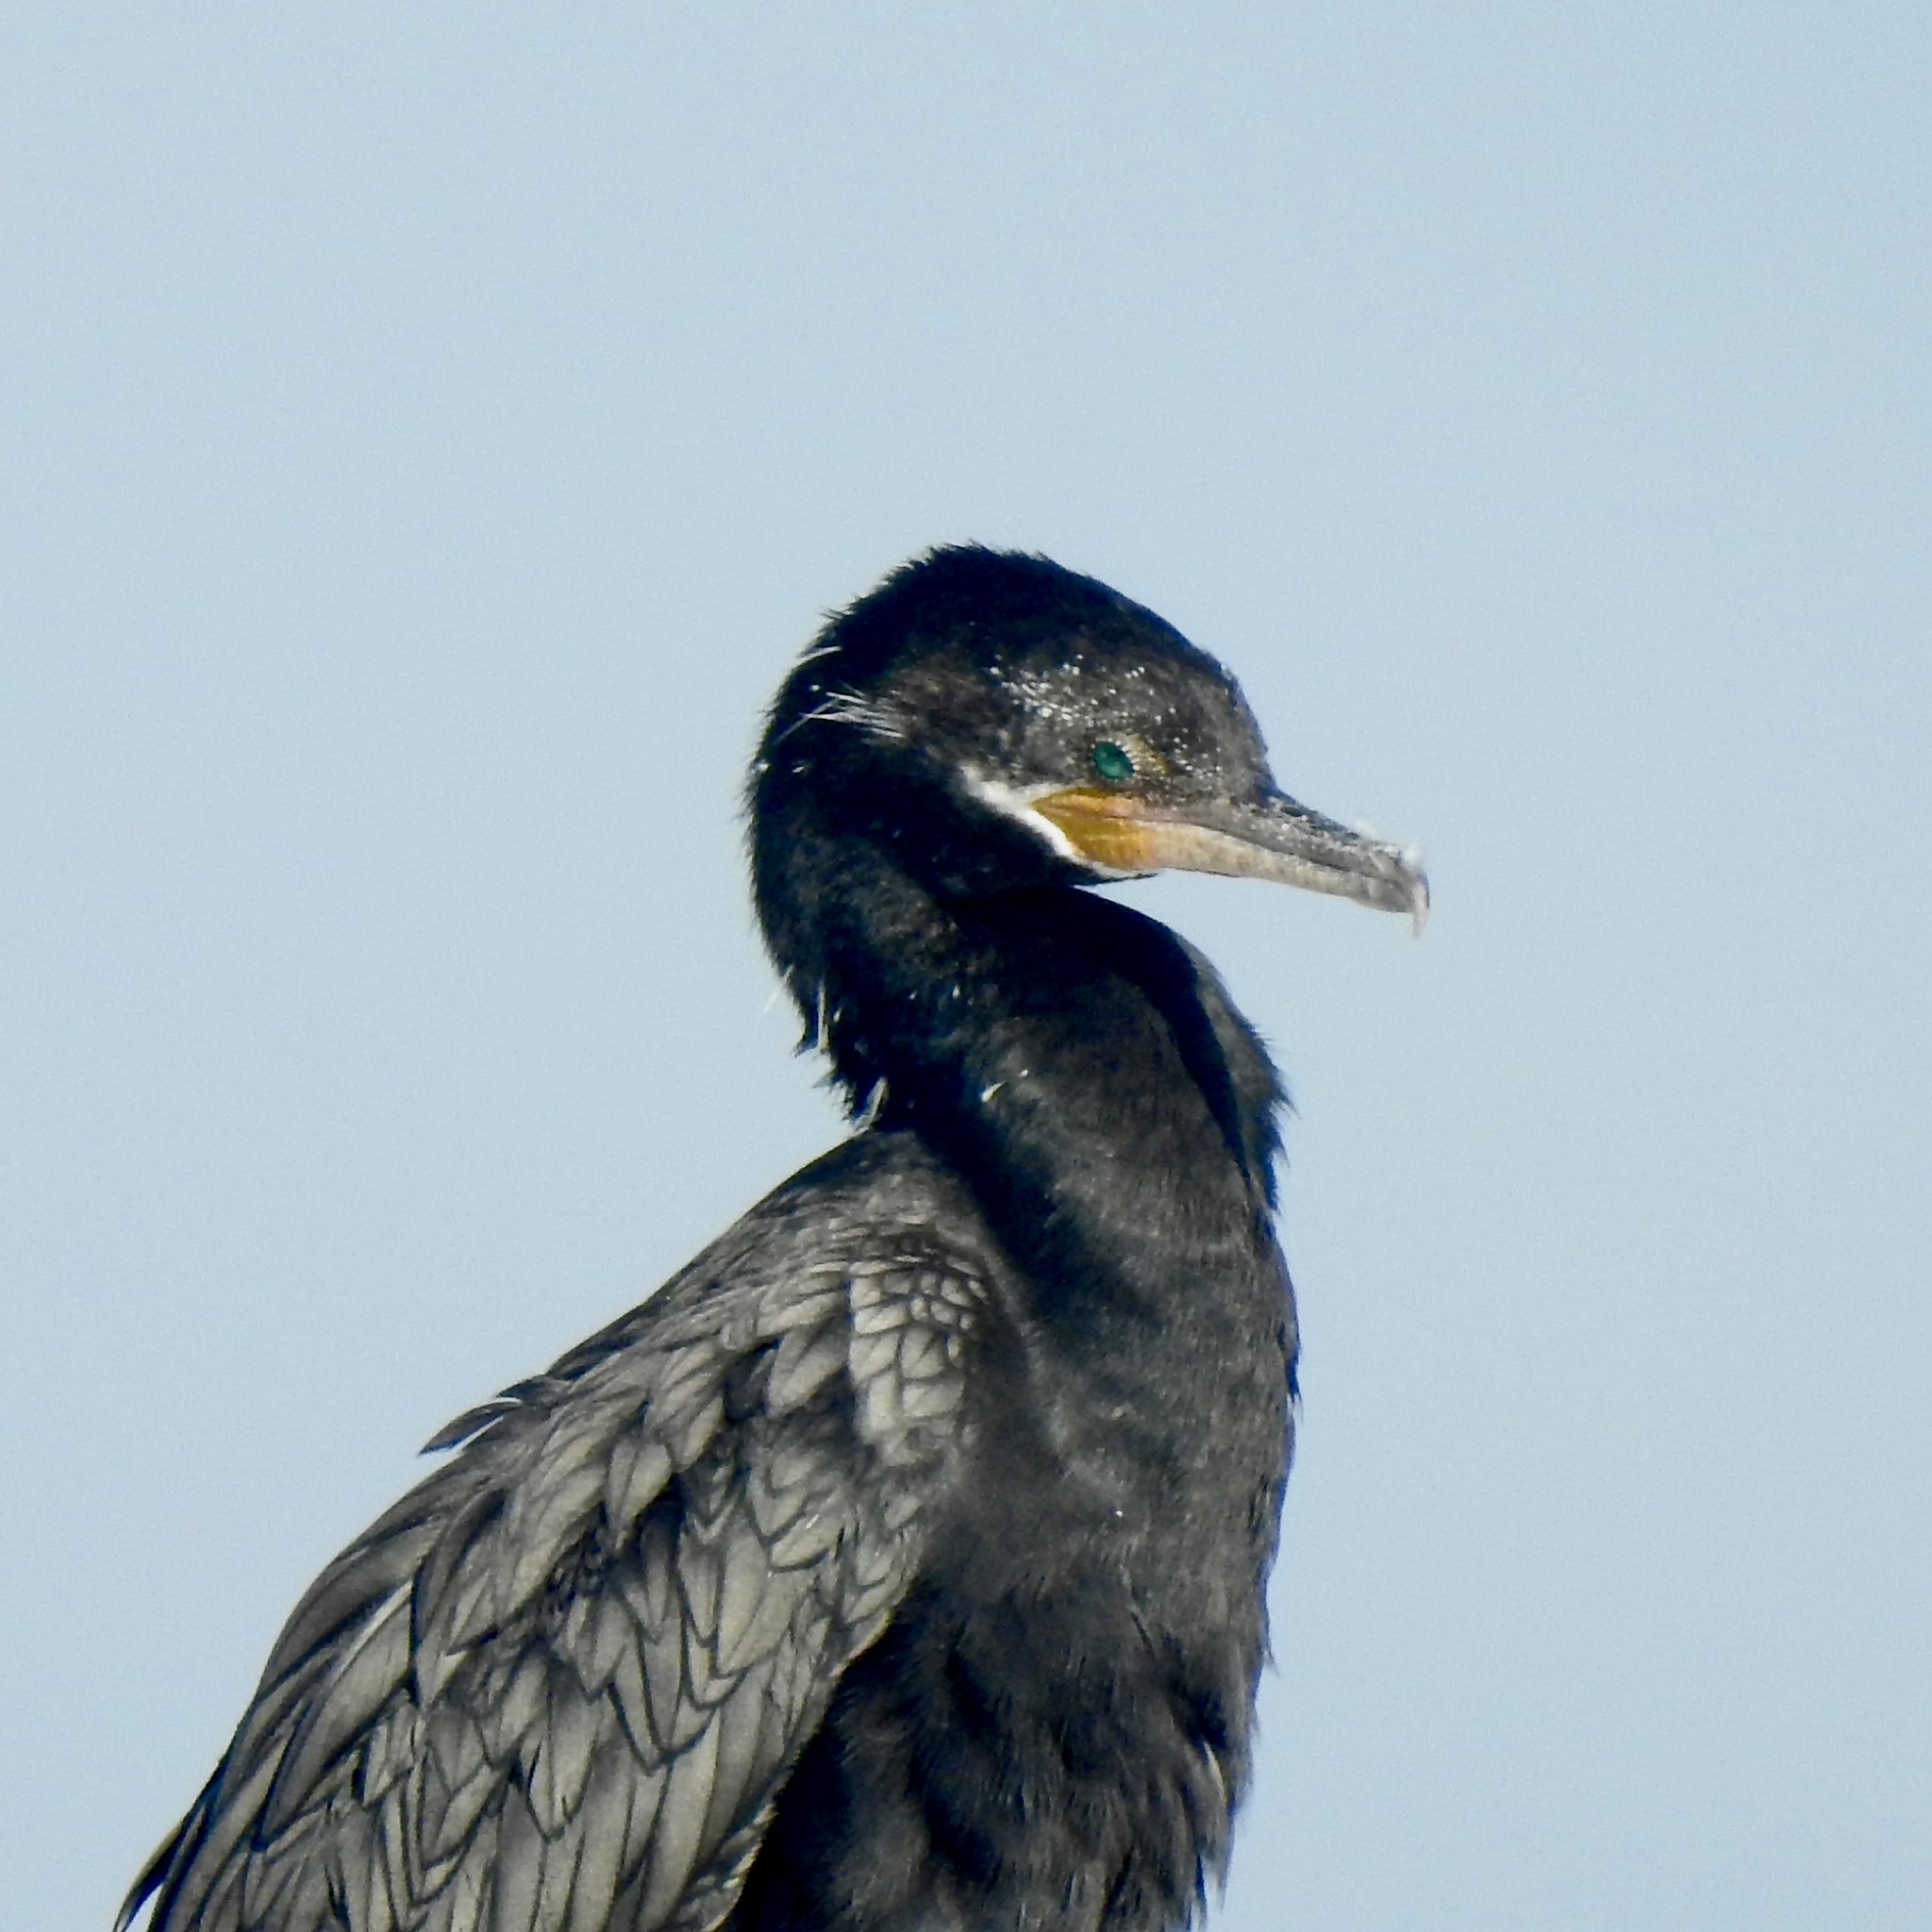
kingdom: Animalia
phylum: Chordata
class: Aves
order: Suliformes
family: Phalacrocoracidae
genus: Phalacrocorax
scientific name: Phalacrocorax brasilianus
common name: Neotropic cormorant
